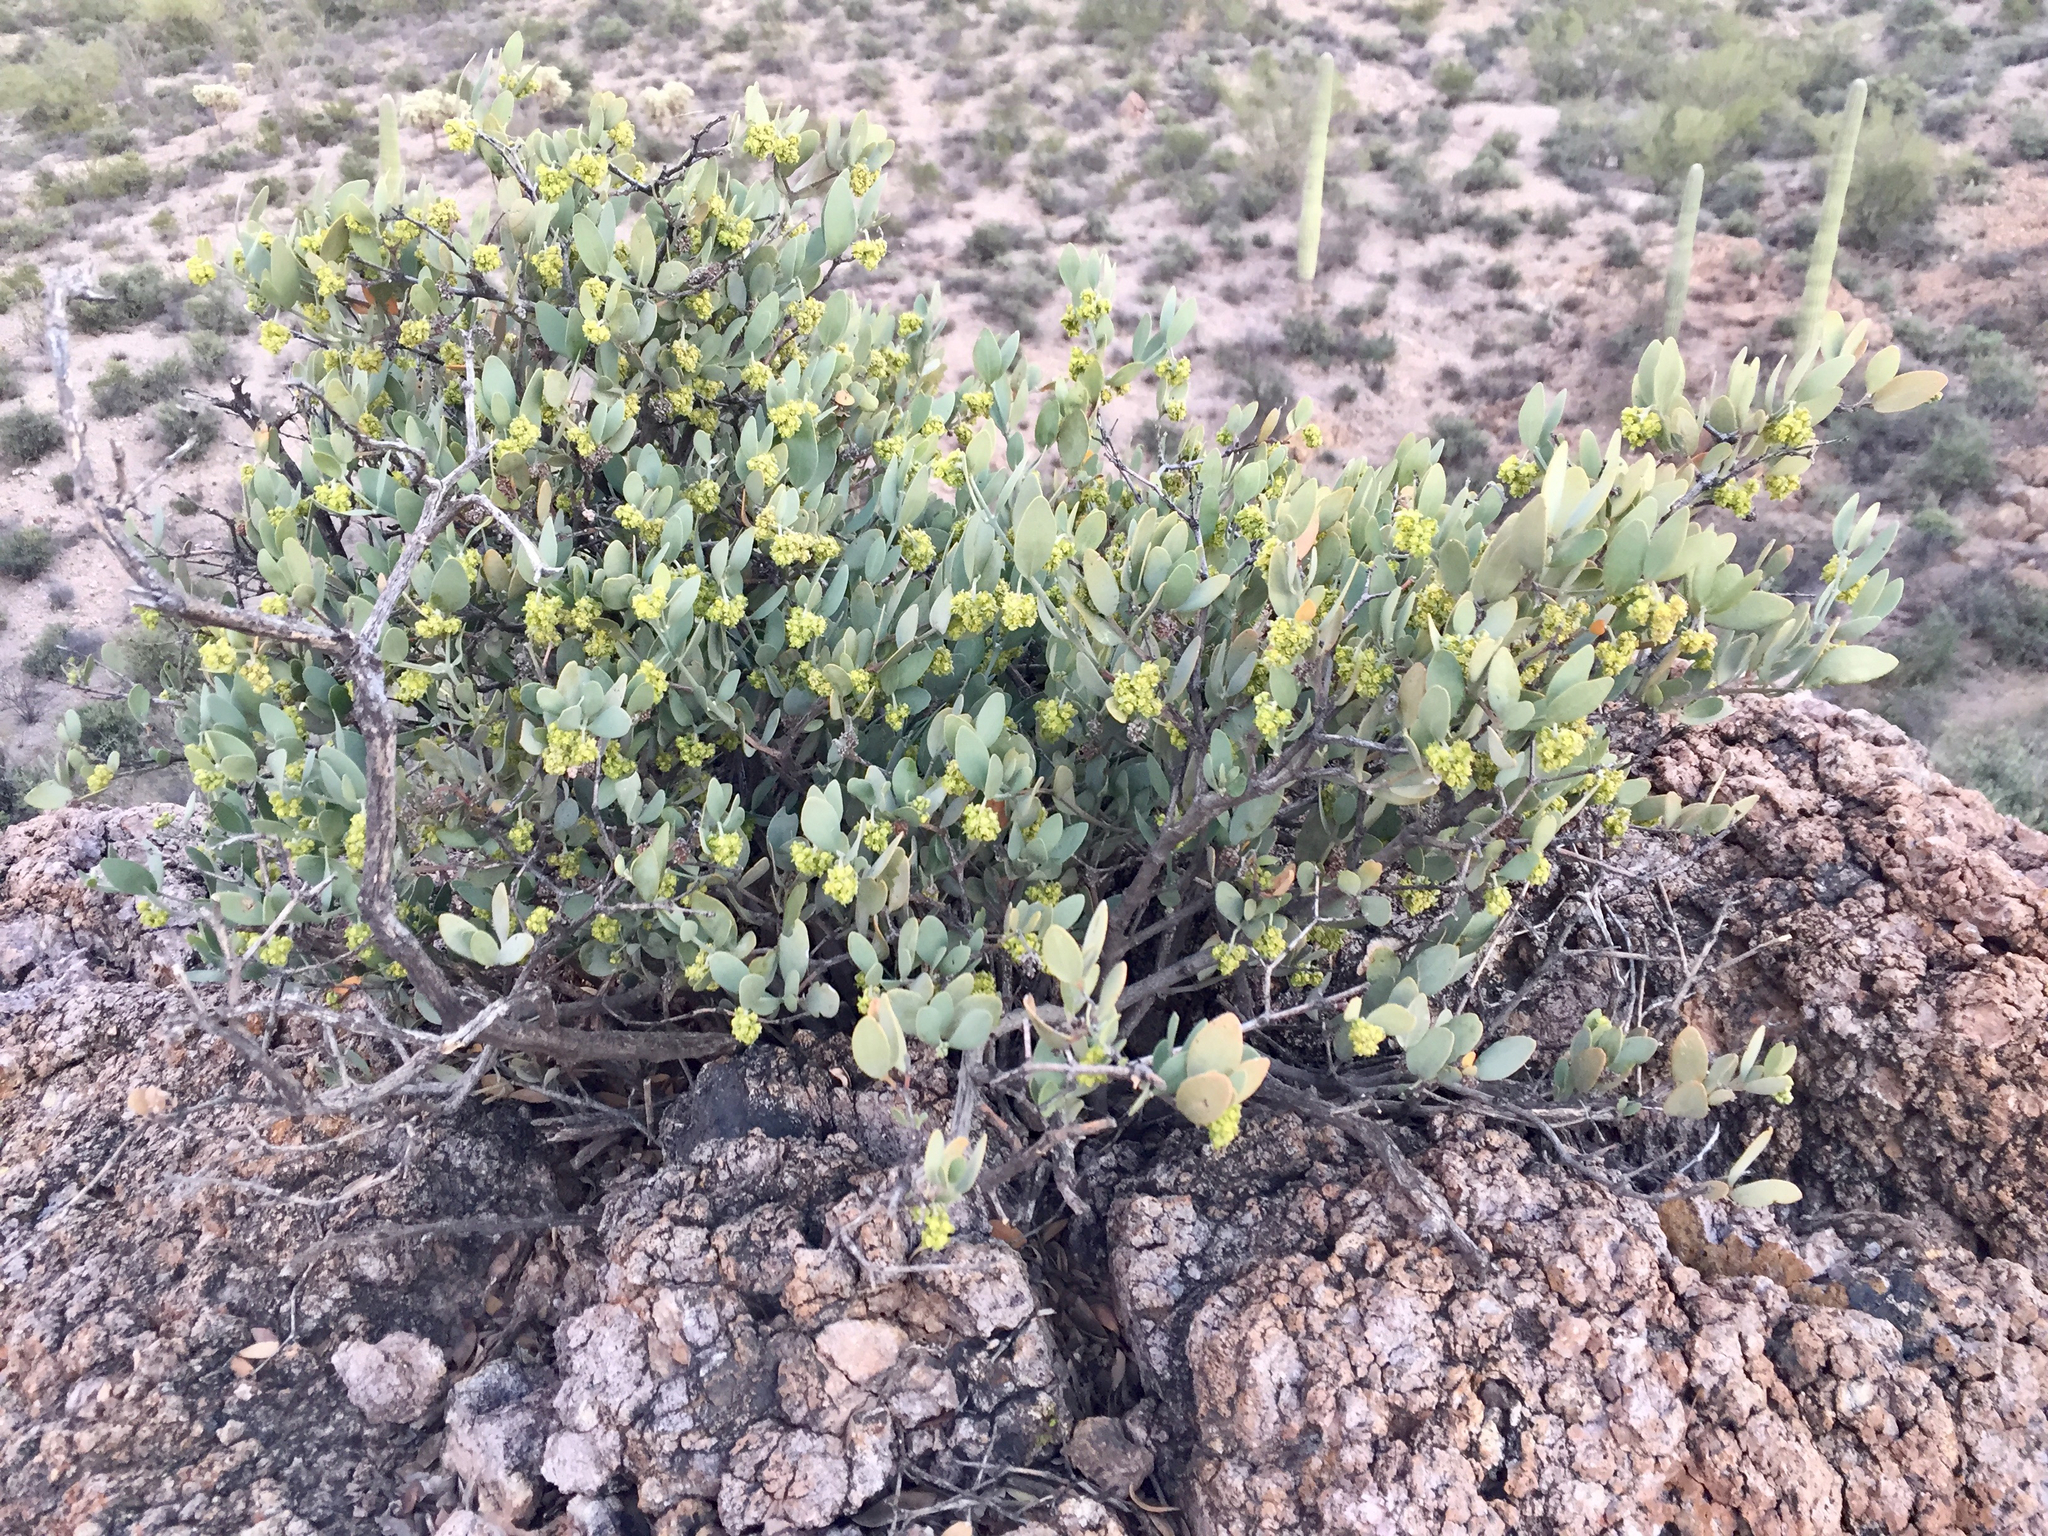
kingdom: Plantae
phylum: Tracheophyta
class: Magnoliopsida
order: Caryophyllales
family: Simmondsiaceae
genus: Simmondsia
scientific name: Simmondsia chinensis
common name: Jojoba
